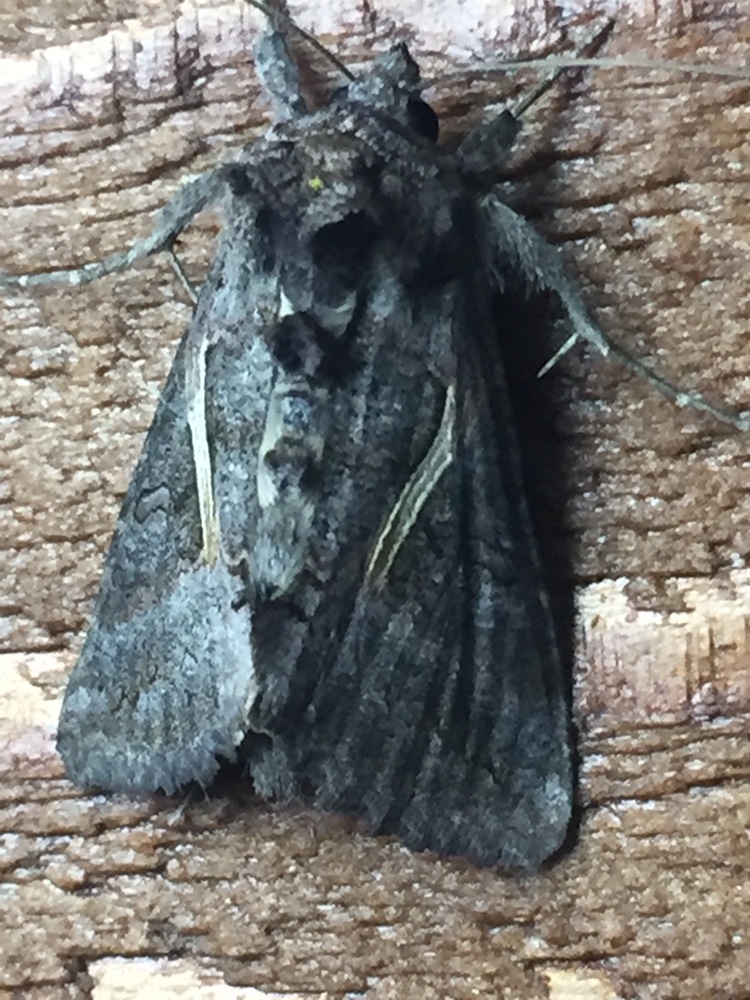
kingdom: Animalia
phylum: Arthropoda
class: Insecta
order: Lepidoptera
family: Noctuidae
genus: Ctenoplusia
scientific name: Ctenoplusia albostriata
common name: Moth
